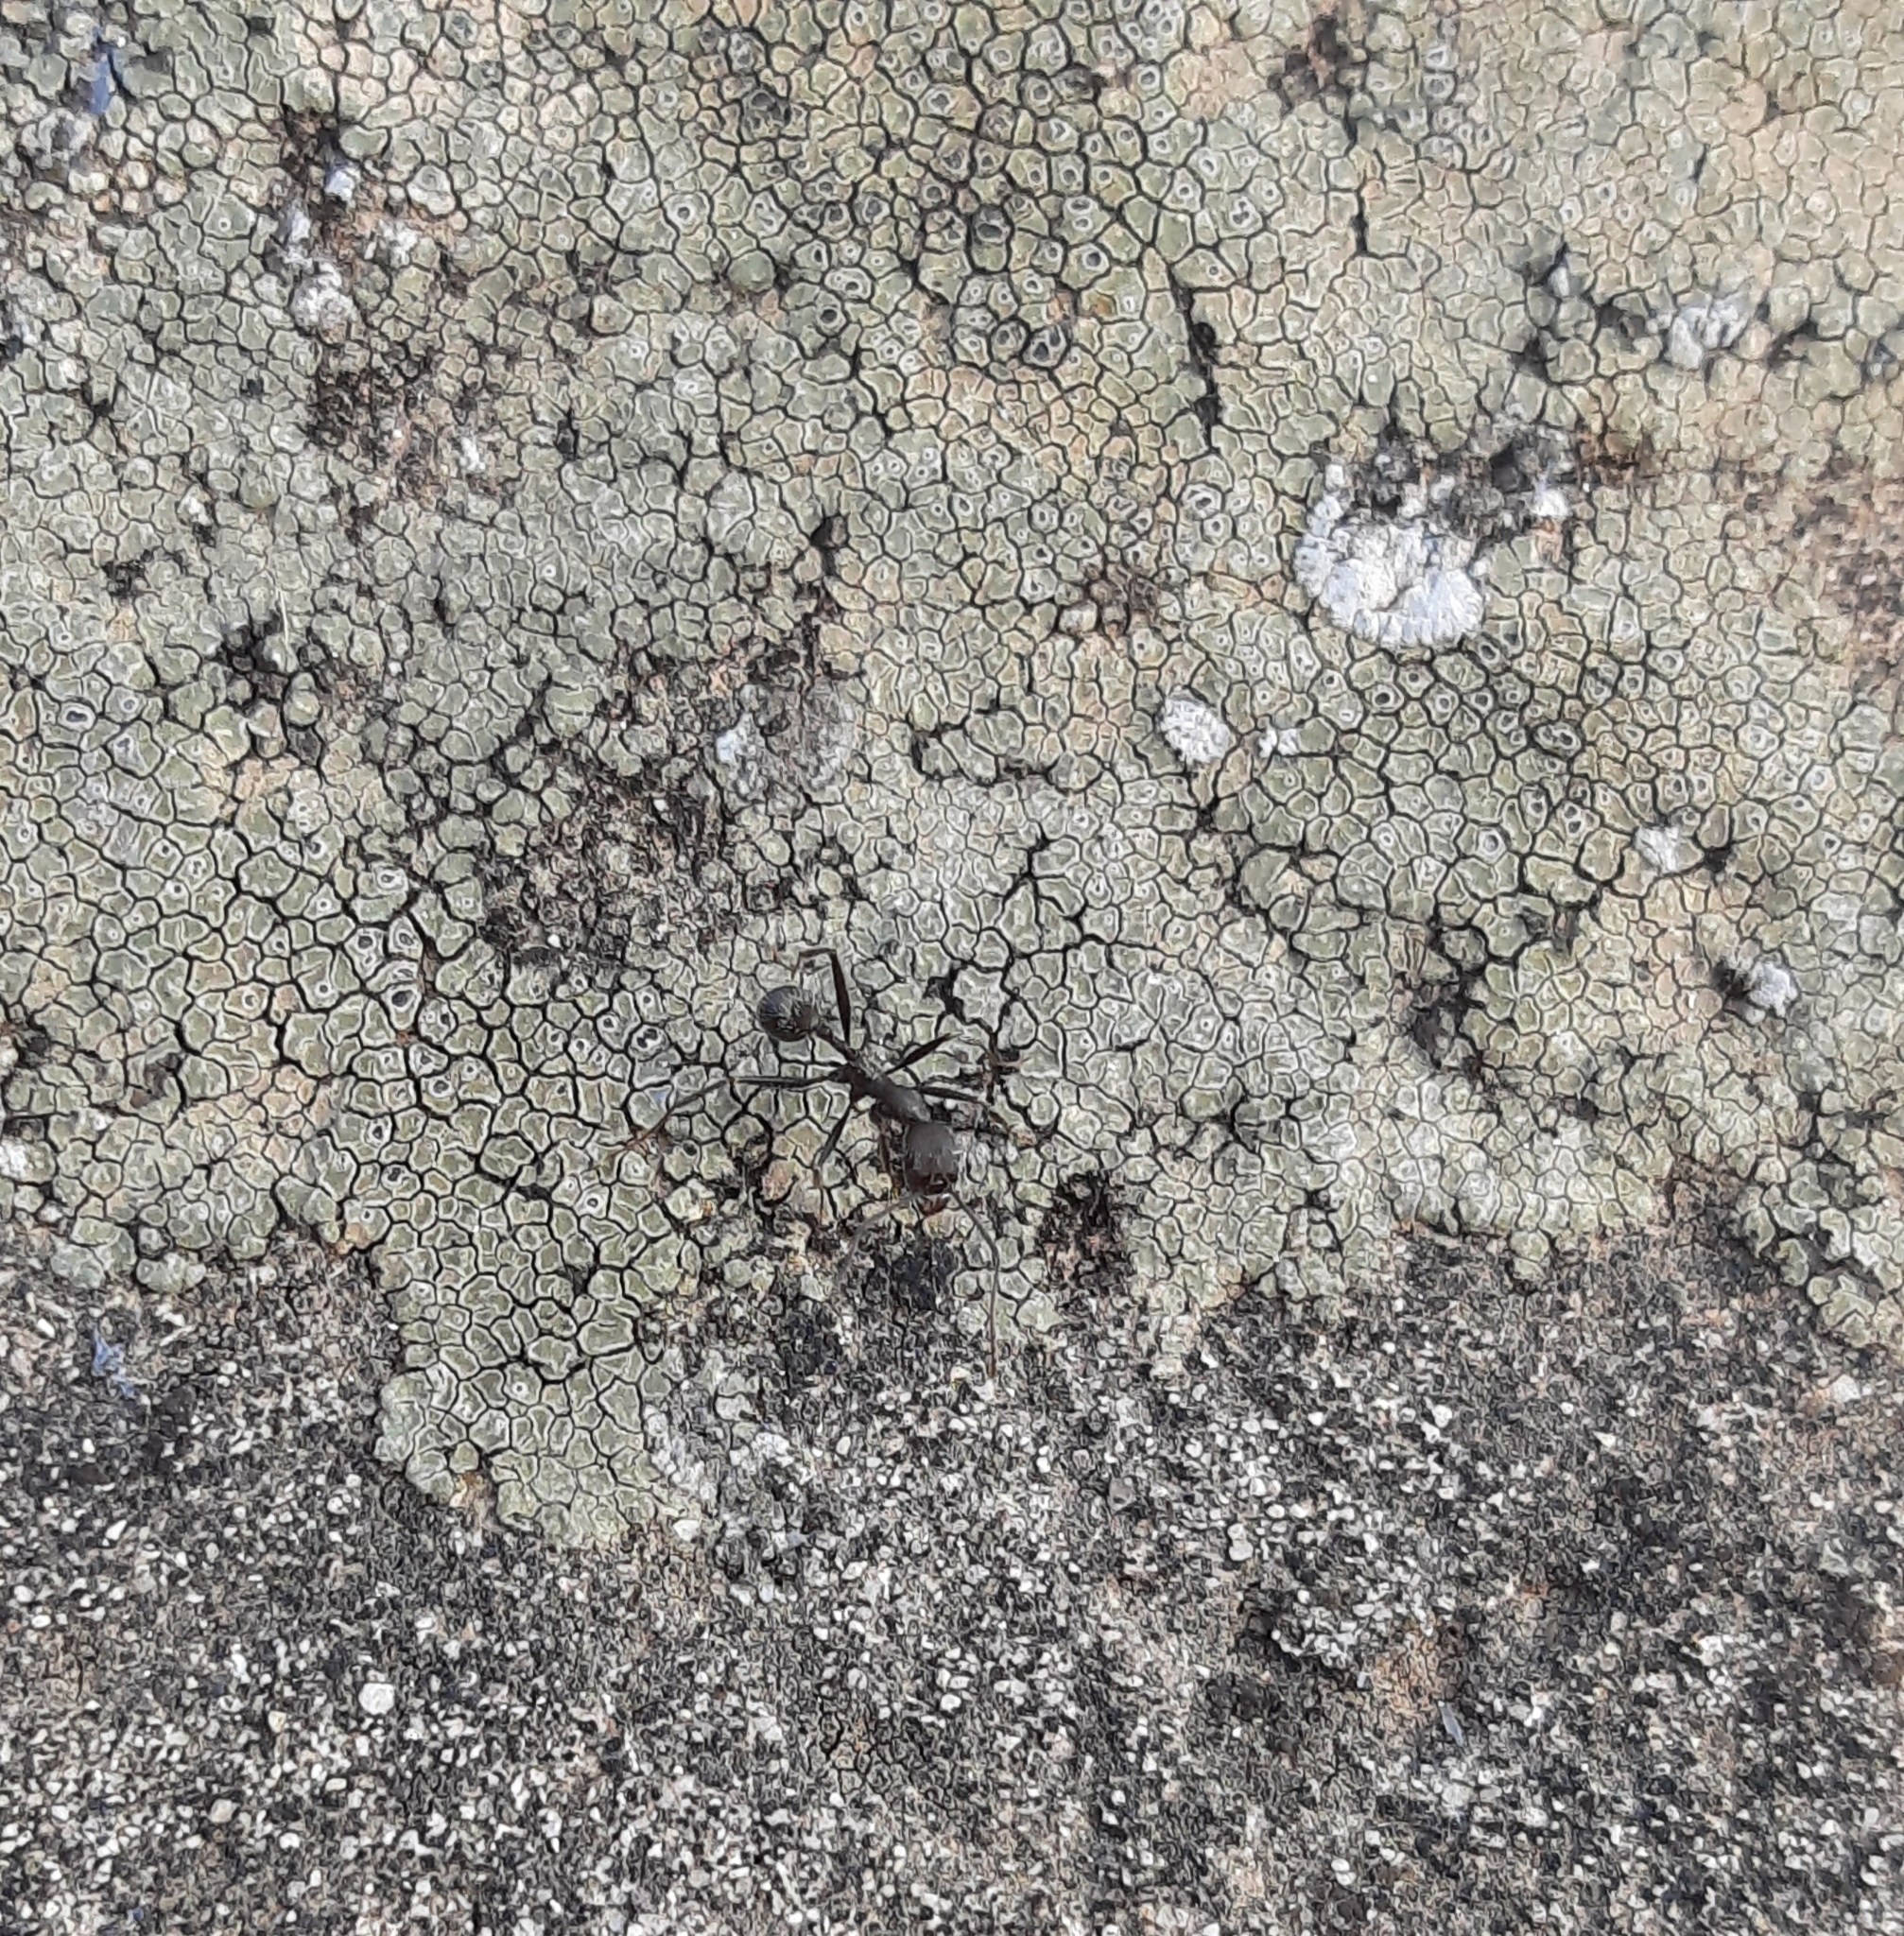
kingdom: Animalia
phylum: Arthropoda
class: Insecta
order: Hymenoptera
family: Formicidae
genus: Aphaenogaster
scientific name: Aphaenogaster
